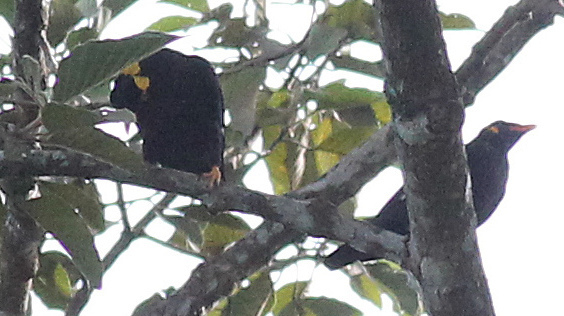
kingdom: Animalia
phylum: Chordata
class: Aves
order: Passeriformes
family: Sturnidae
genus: Gracula
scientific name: Gracula religiosa
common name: Common hill myna
